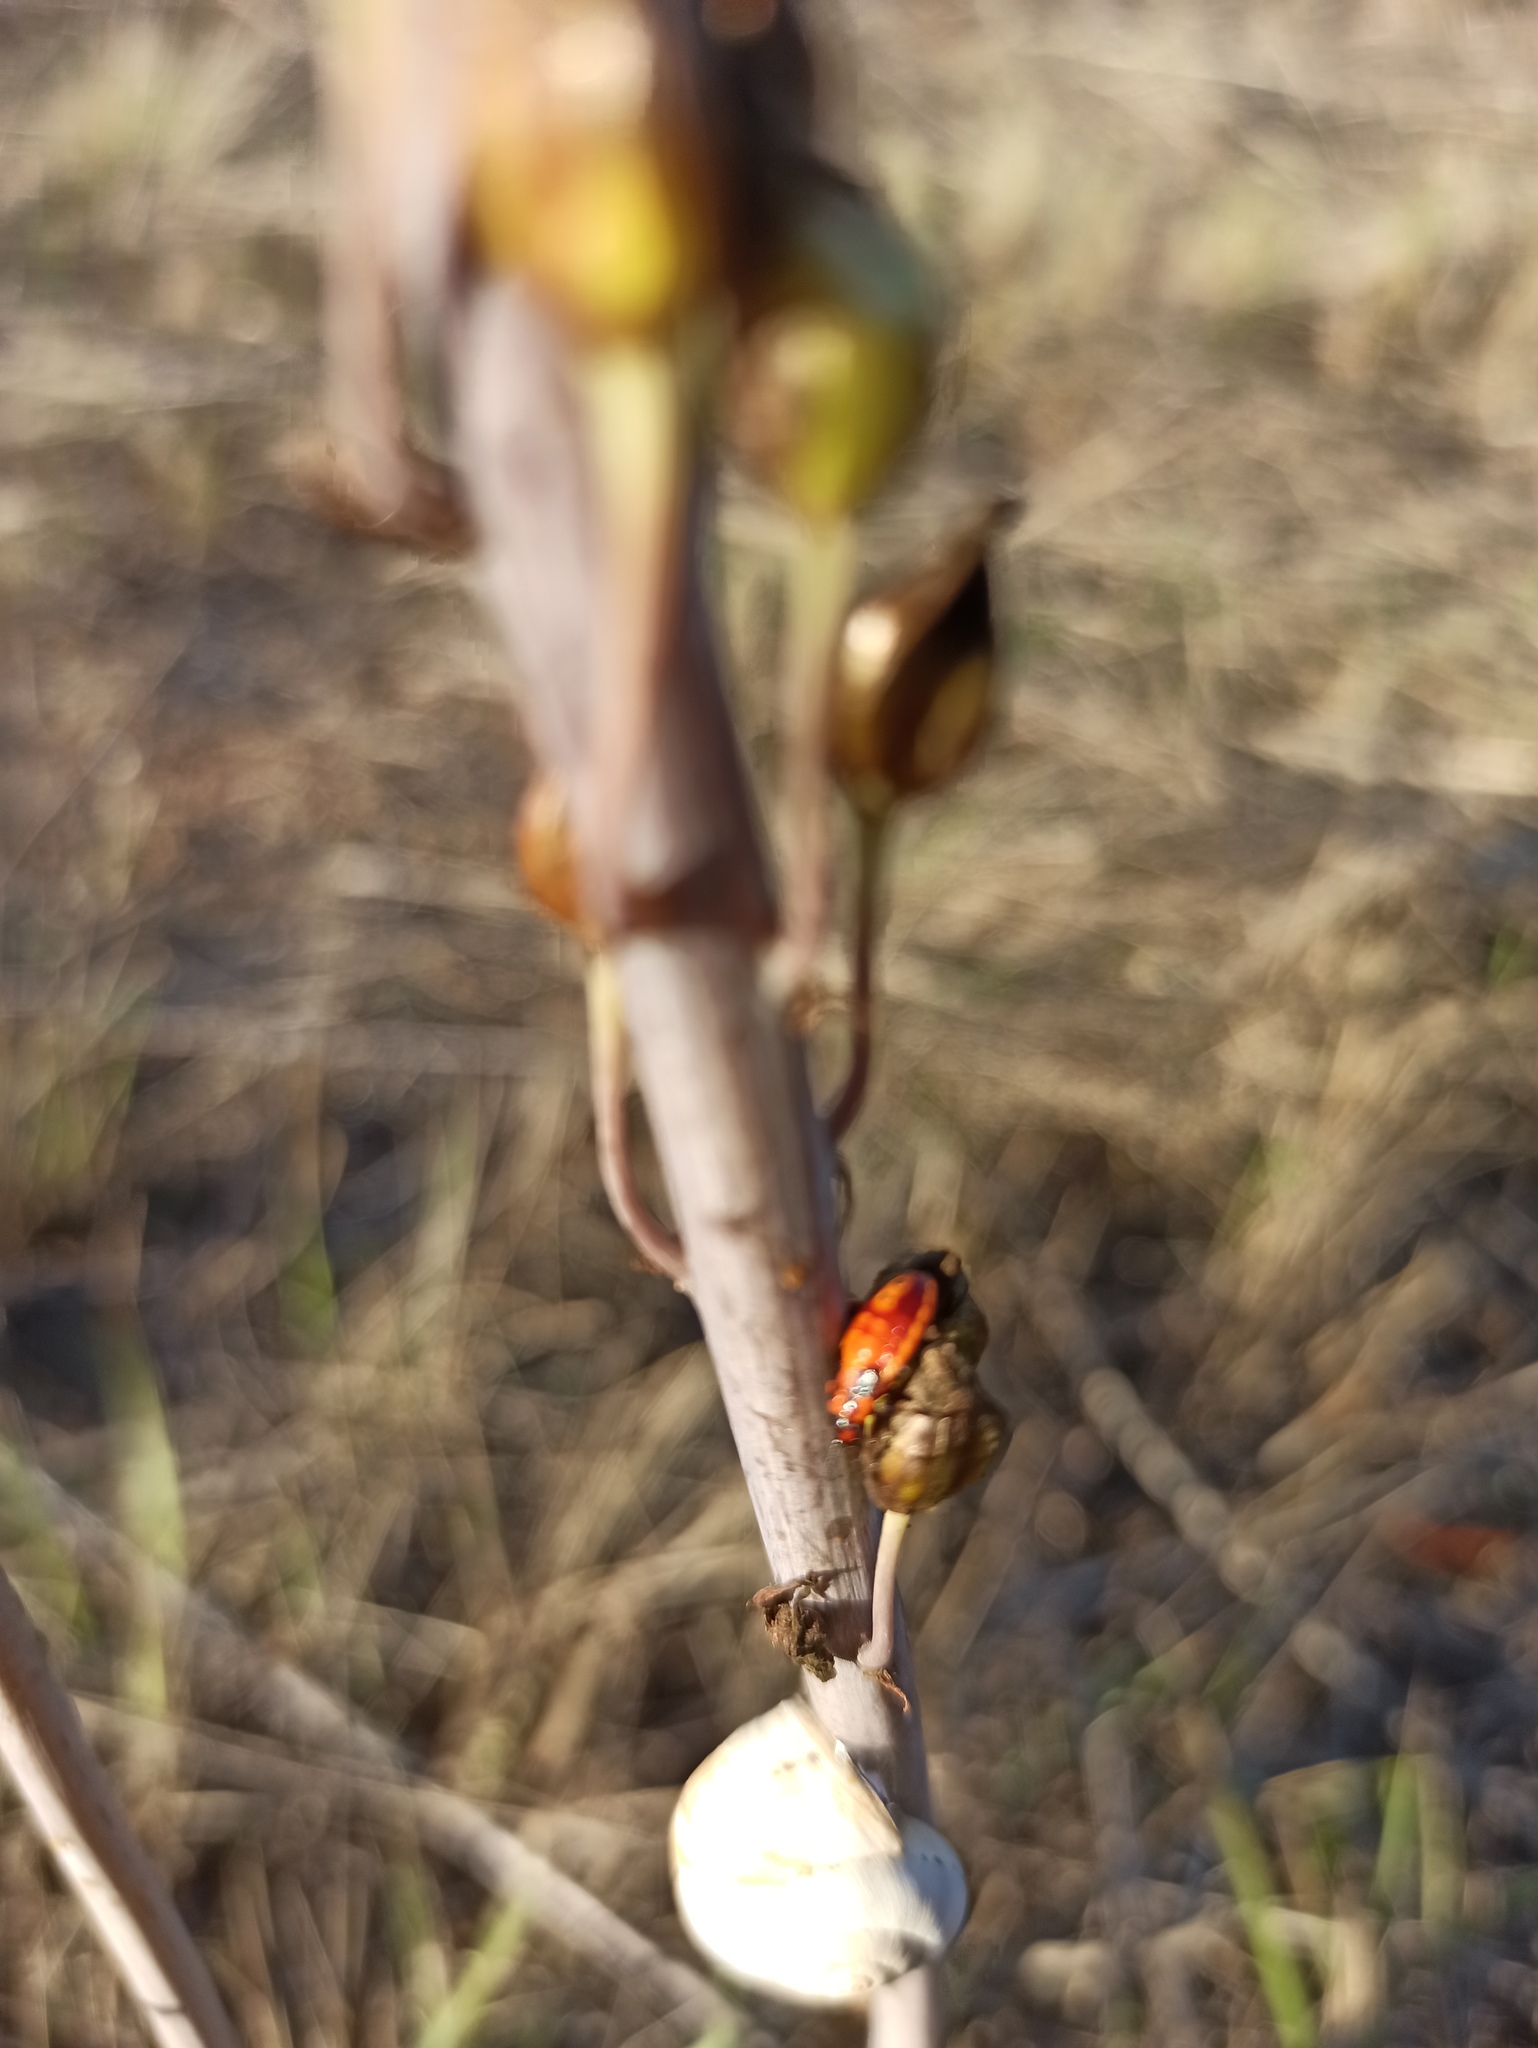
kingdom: Animalia
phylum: Arthropoda
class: Insecta
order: Hemiptera
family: Lygaeidae
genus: Spilostethus
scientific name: Spilostethus pandurus
